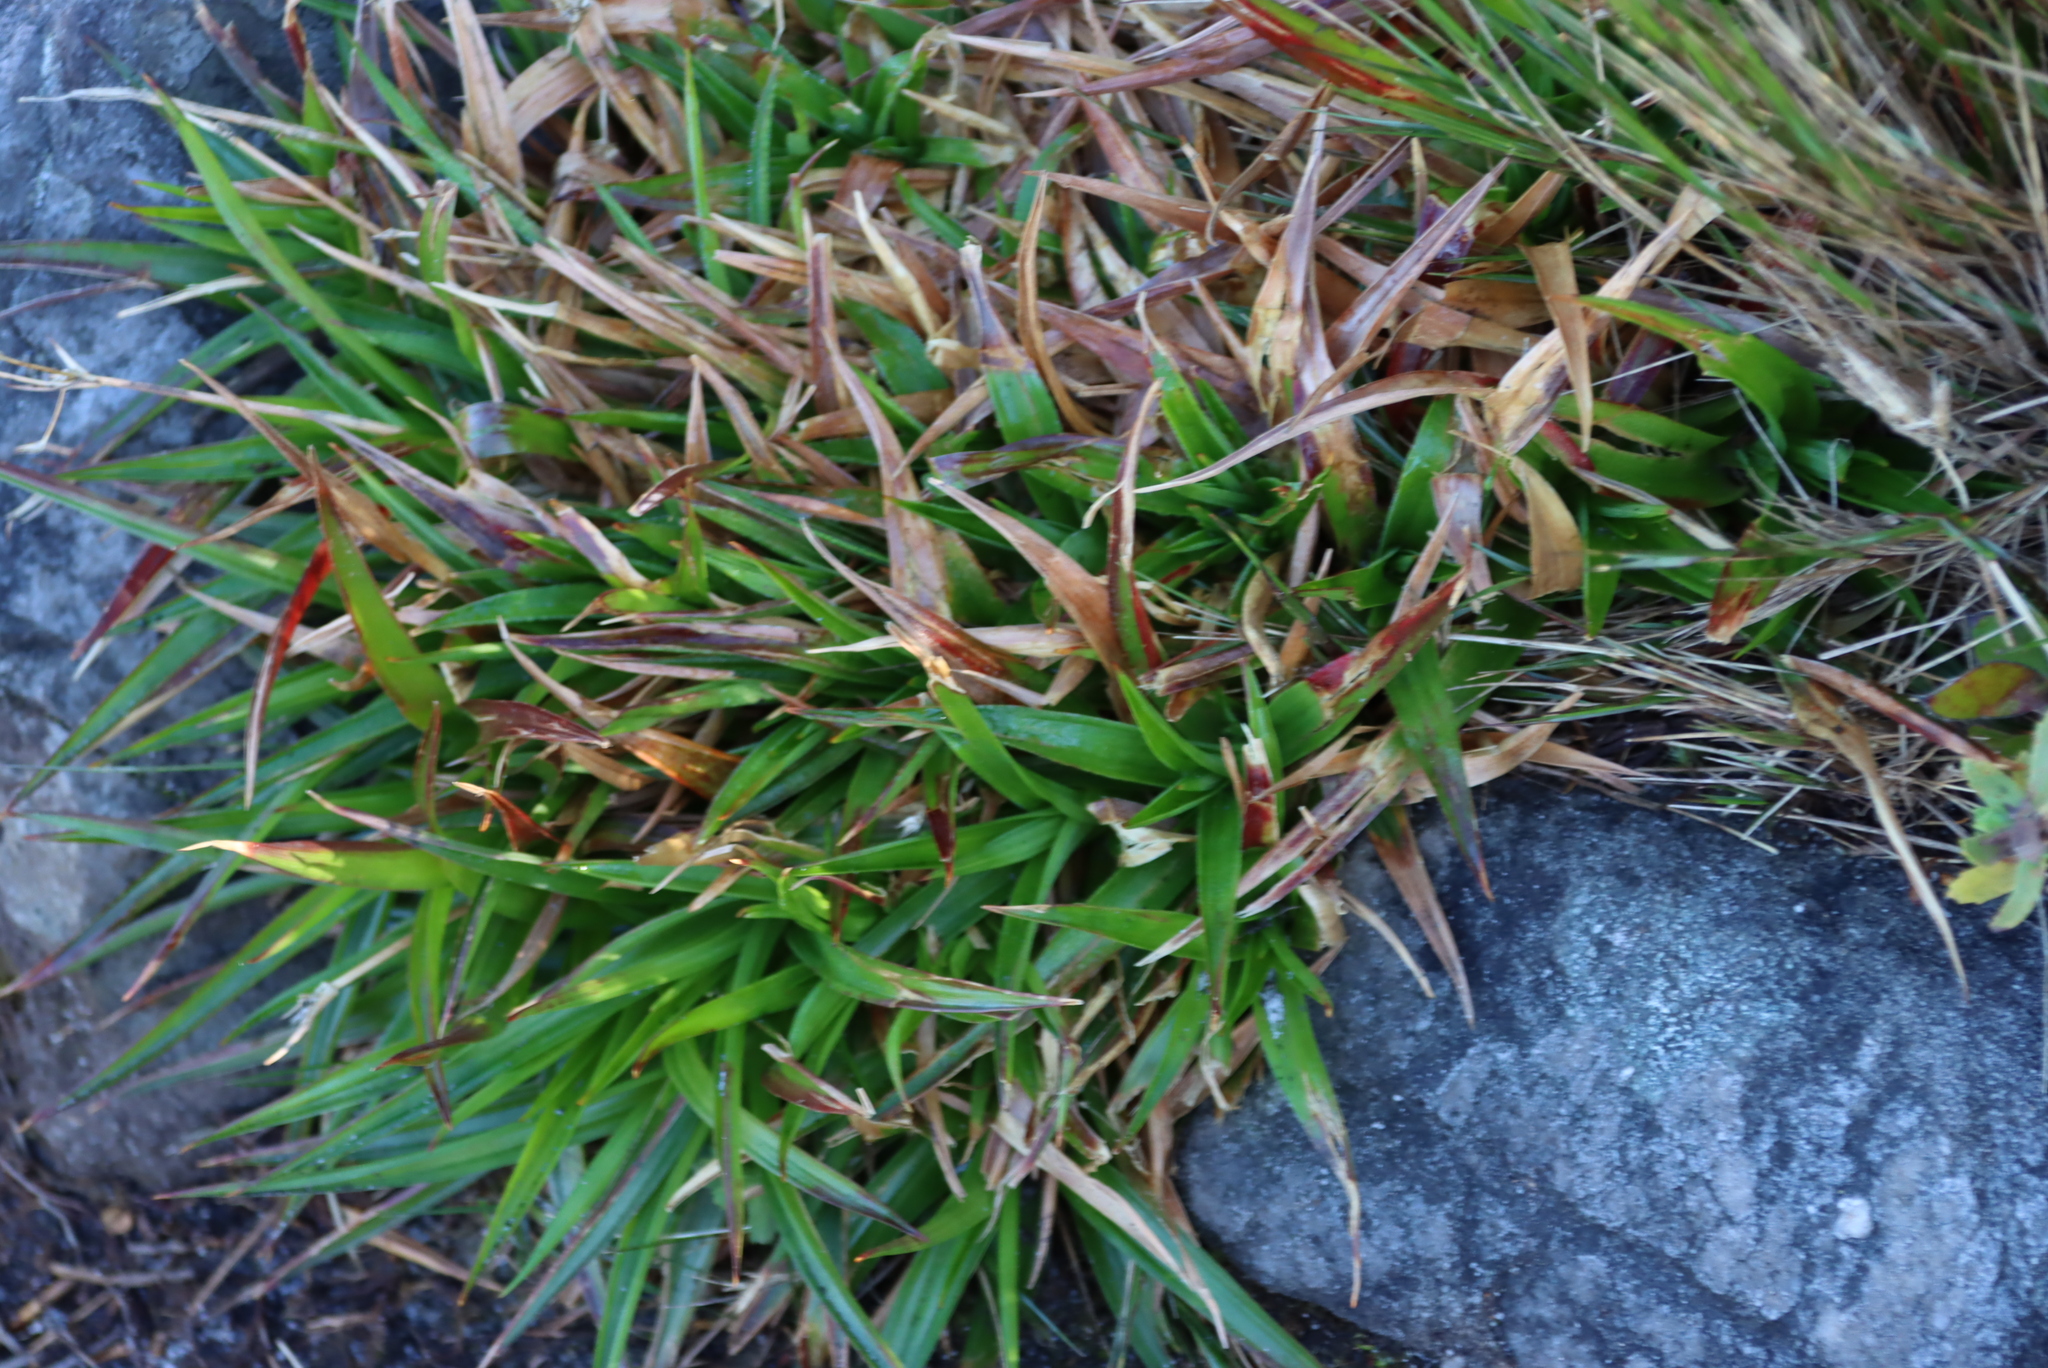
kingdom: Plantae
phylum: Tracheophyta
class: Liliopsida
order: Poales
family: Juncaceae
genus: Juncus
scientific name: Juncus lomatophyllus
